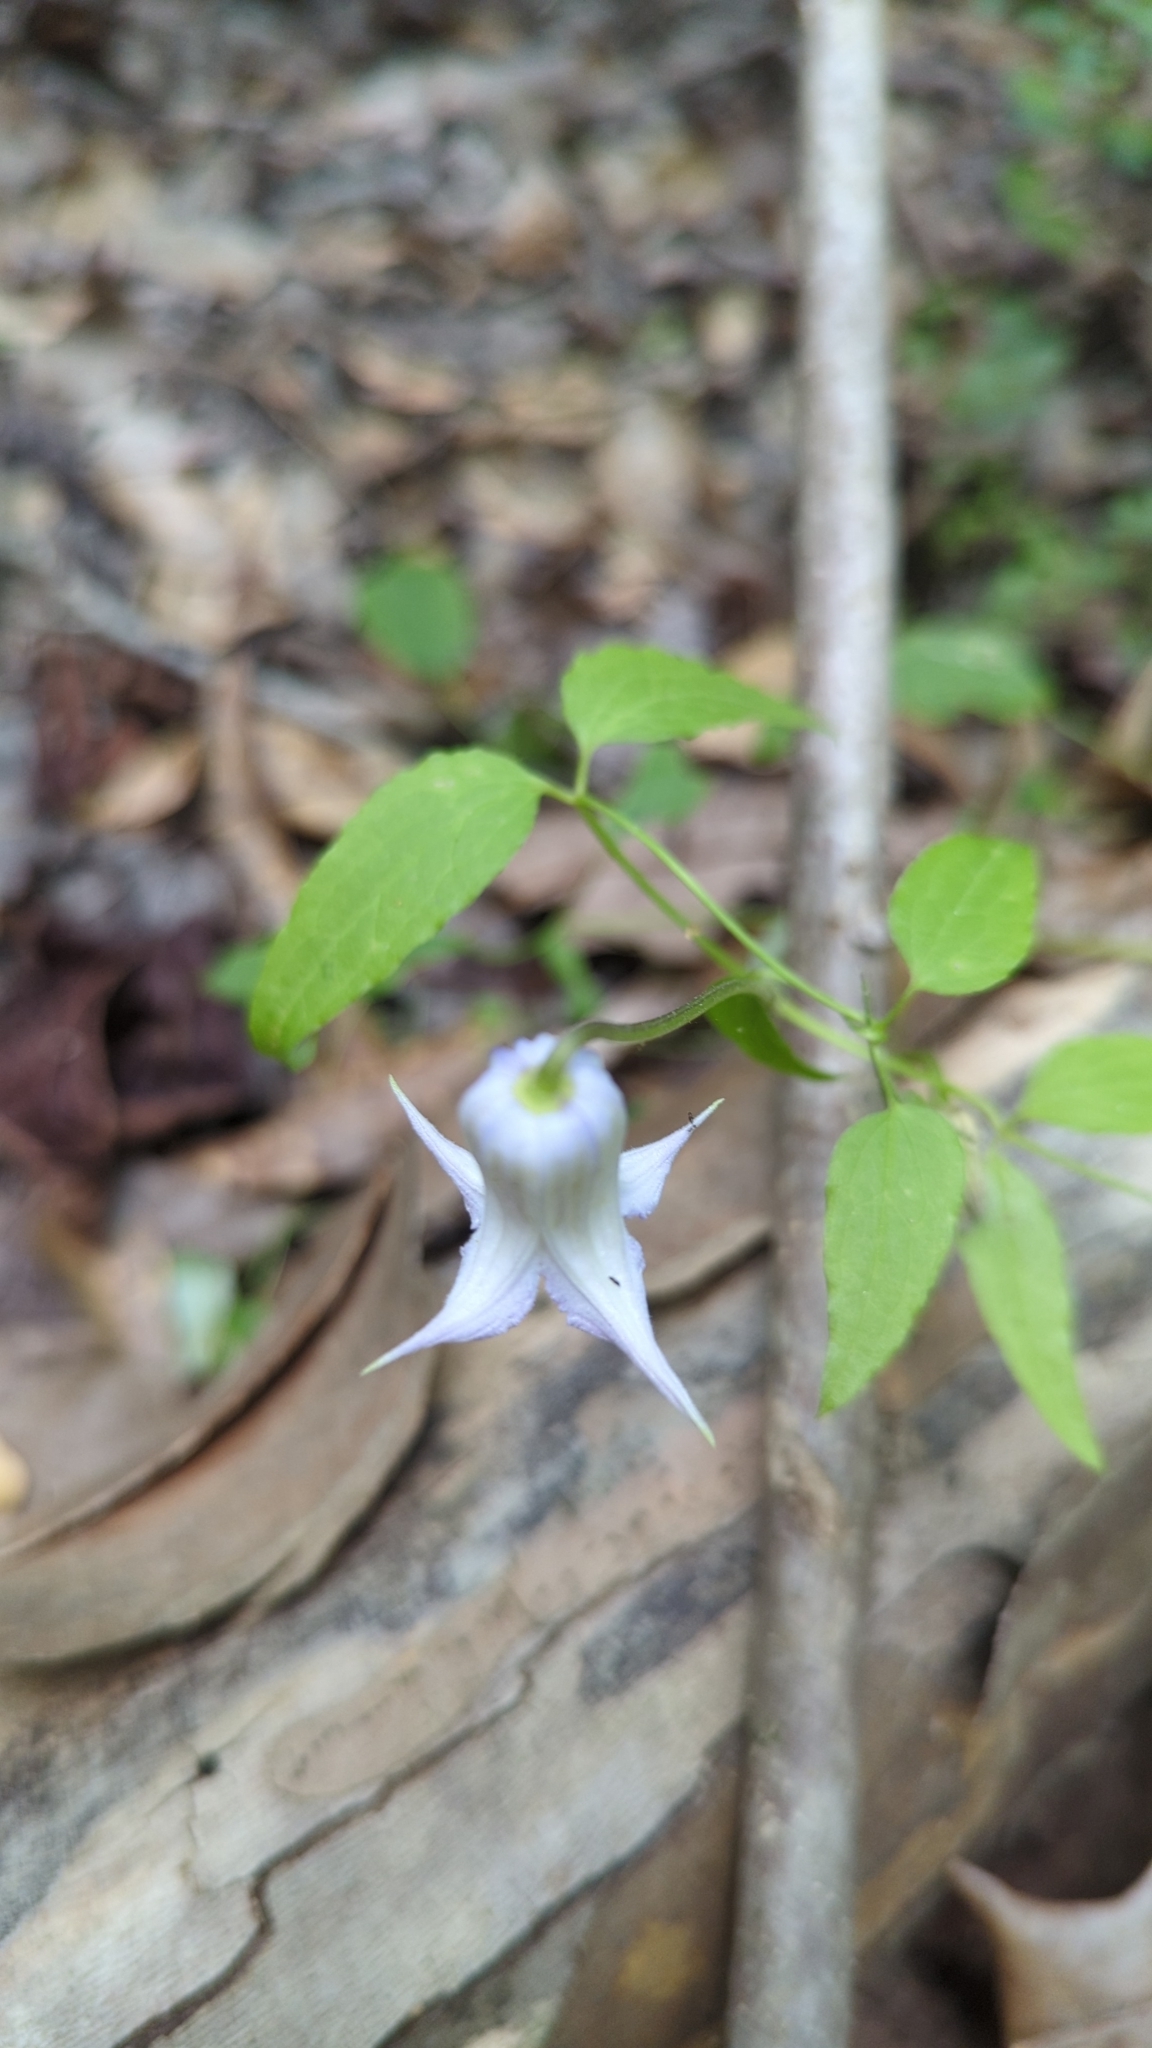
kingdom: Plantae
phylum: Tracheophyta
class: Magnoliopsida
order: Ranunculales
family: Ranunculaceae
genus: Clematis
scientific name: Clematis crispa
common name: Curly clematis
